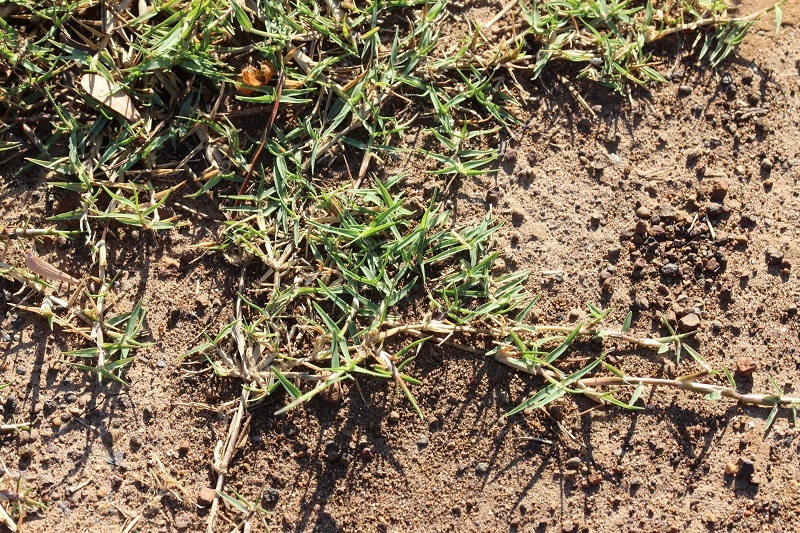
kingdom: Plantae
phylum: Tracheophyta
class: Liliopsida
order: Poales
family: Poaceae
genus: Cynodon
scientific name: Cynodon dactylon
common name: Bermuda grass
